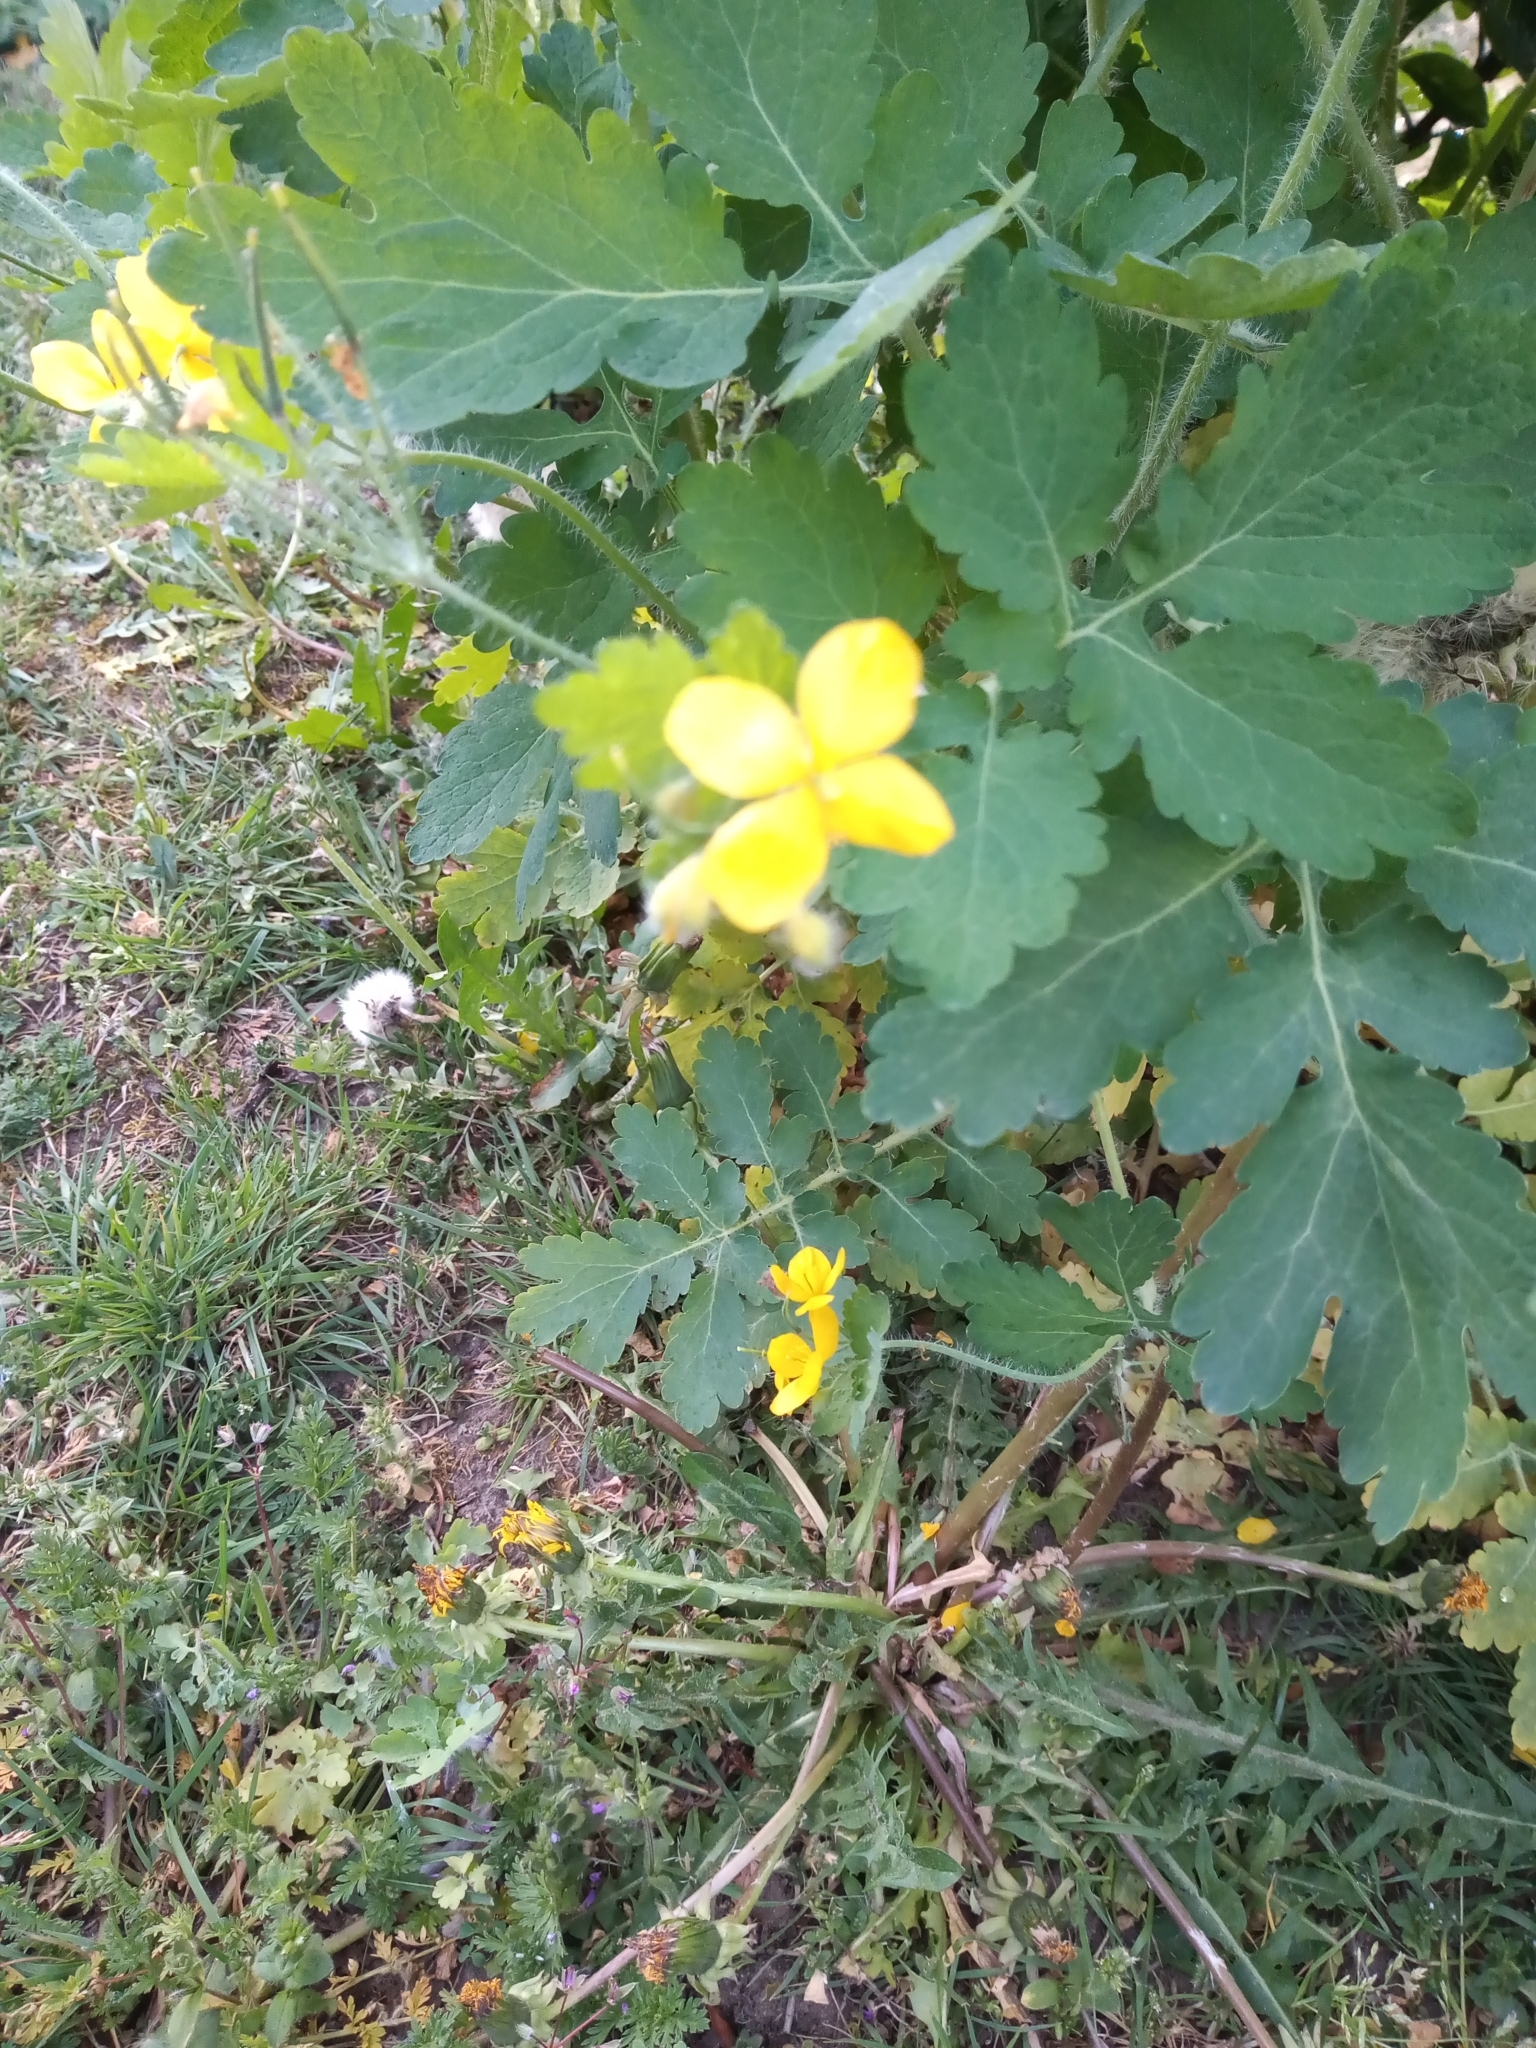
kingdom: Plantae
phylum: Tracheophyta
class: Magnoliopsida
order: Ranunculales
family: Papaveraceae
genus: Chelidonium
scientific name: Chelidonium majus
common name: Greater celandine
